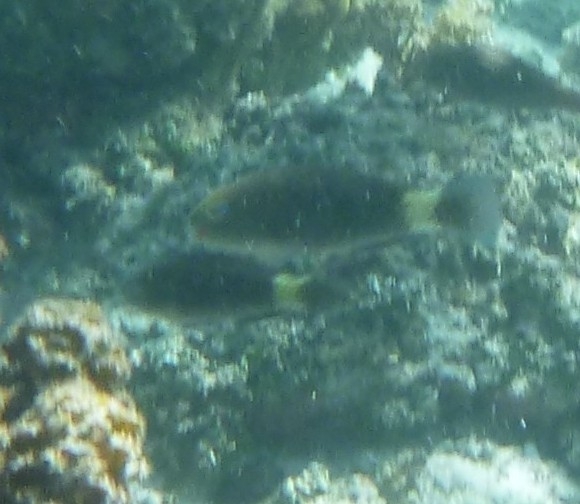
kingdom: Animalia
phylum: Chordata
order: Perciformes
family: Scaridae
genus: Chlorurus
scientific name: Chlorurus frontalis
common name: Reefcrest parrotfish
